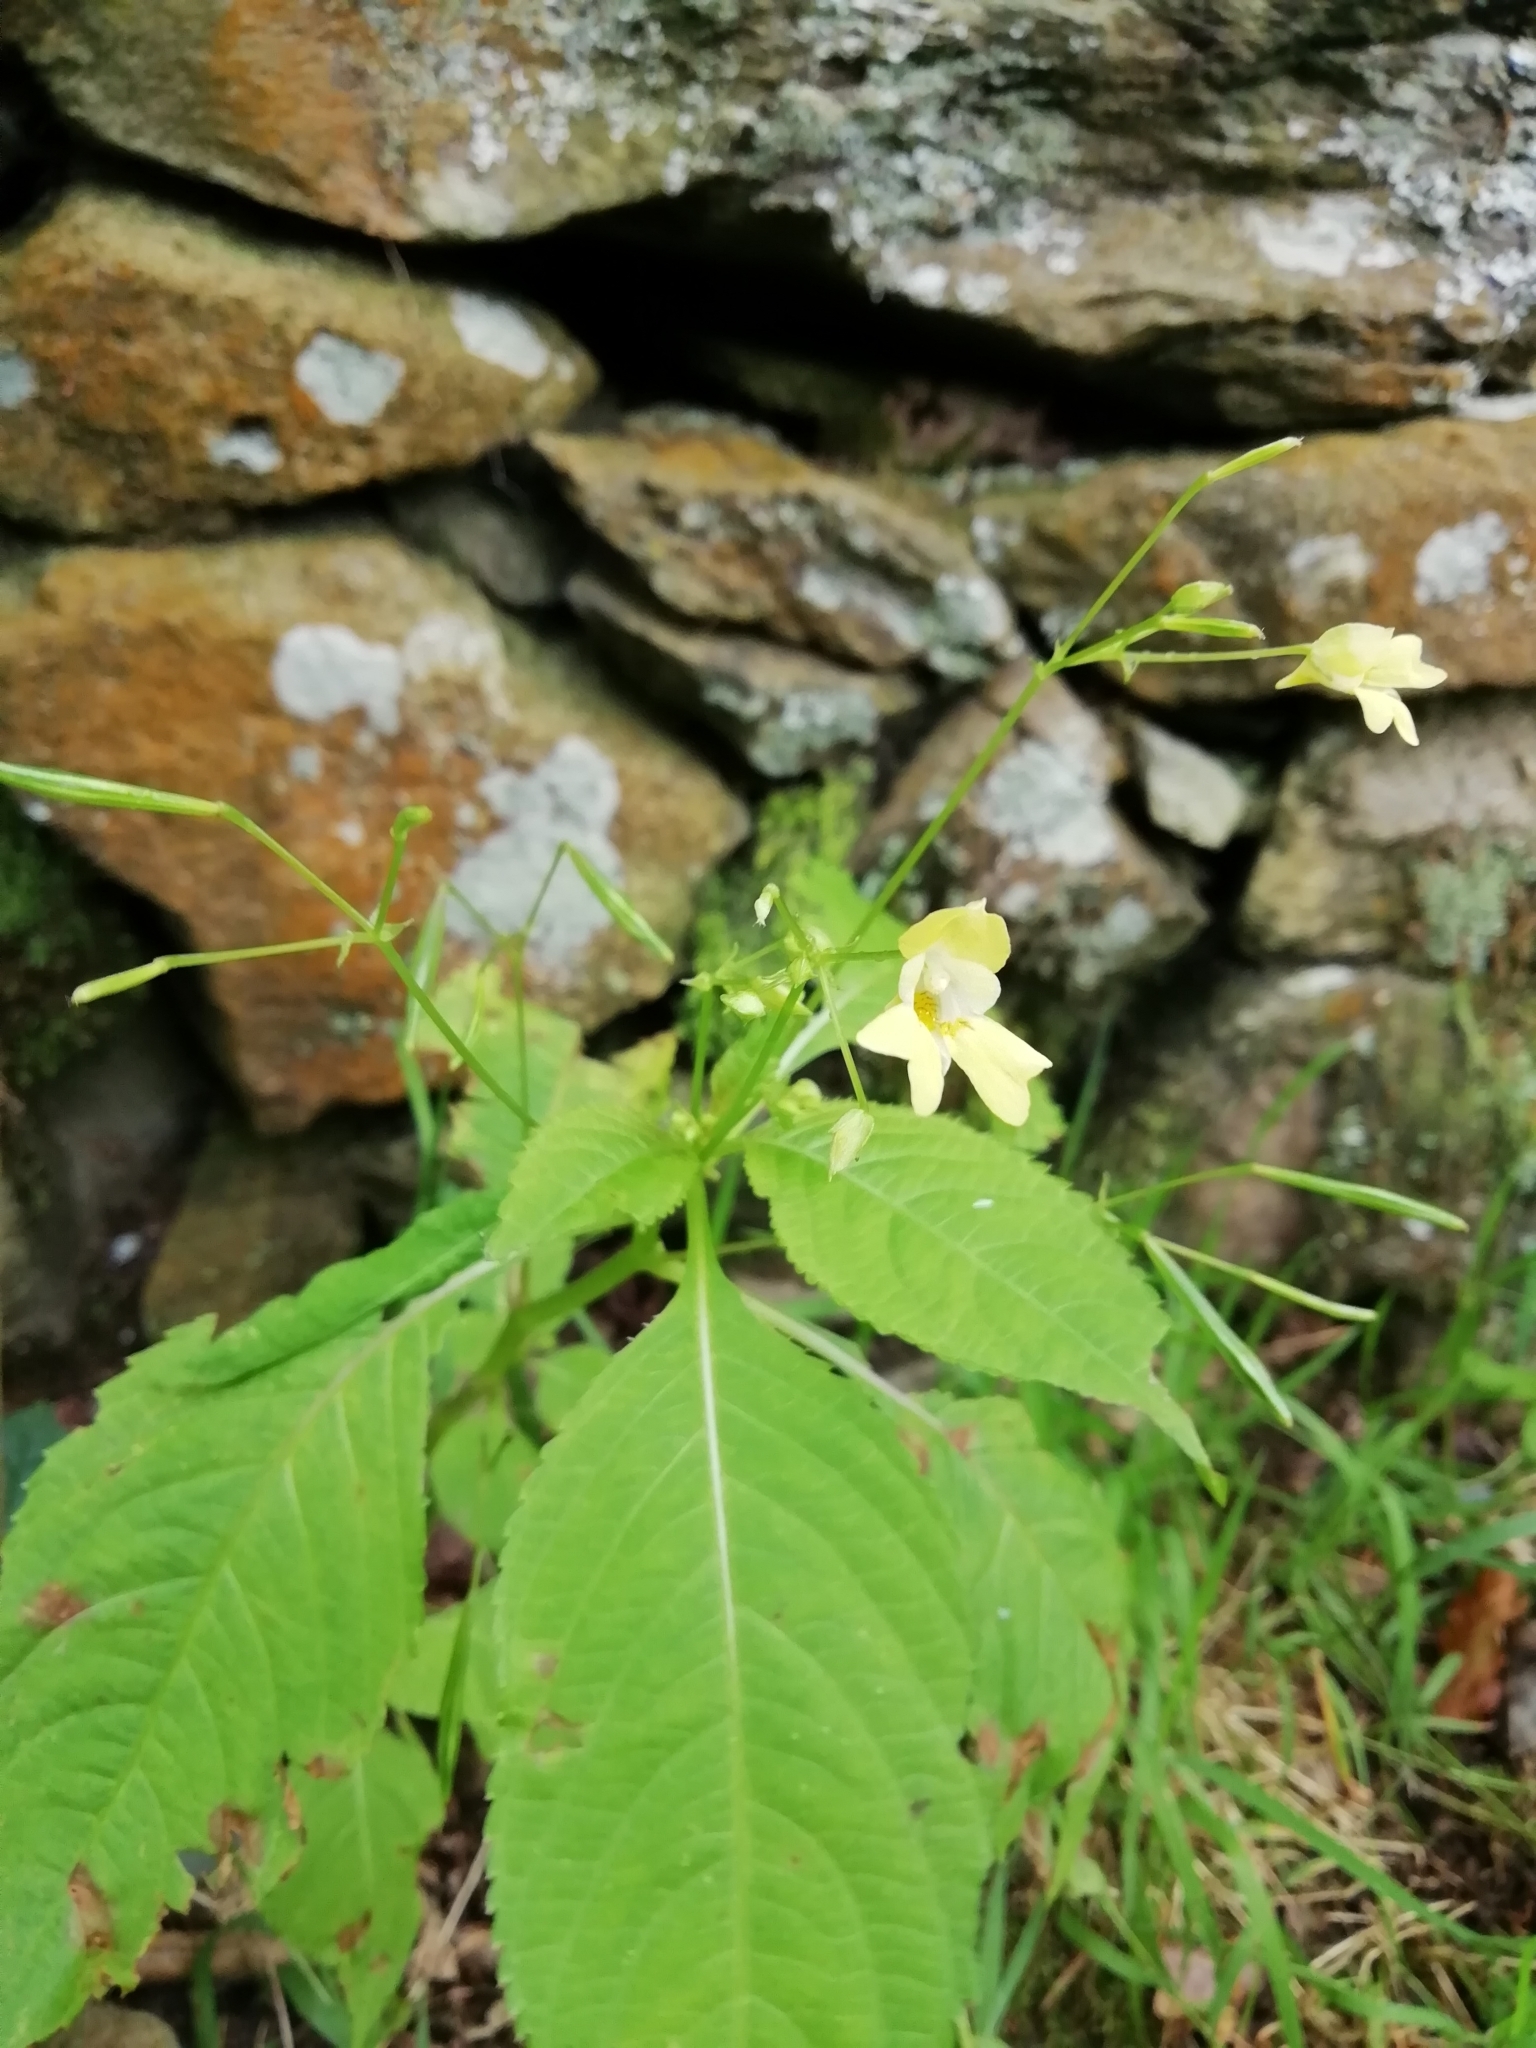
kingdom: Plantae
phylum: Tracheophyta
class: Magnoliopsida
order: Ericales
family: Balsaminaceae
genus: Impatiens
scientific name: Impatiens parviflora
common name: Small balsam
